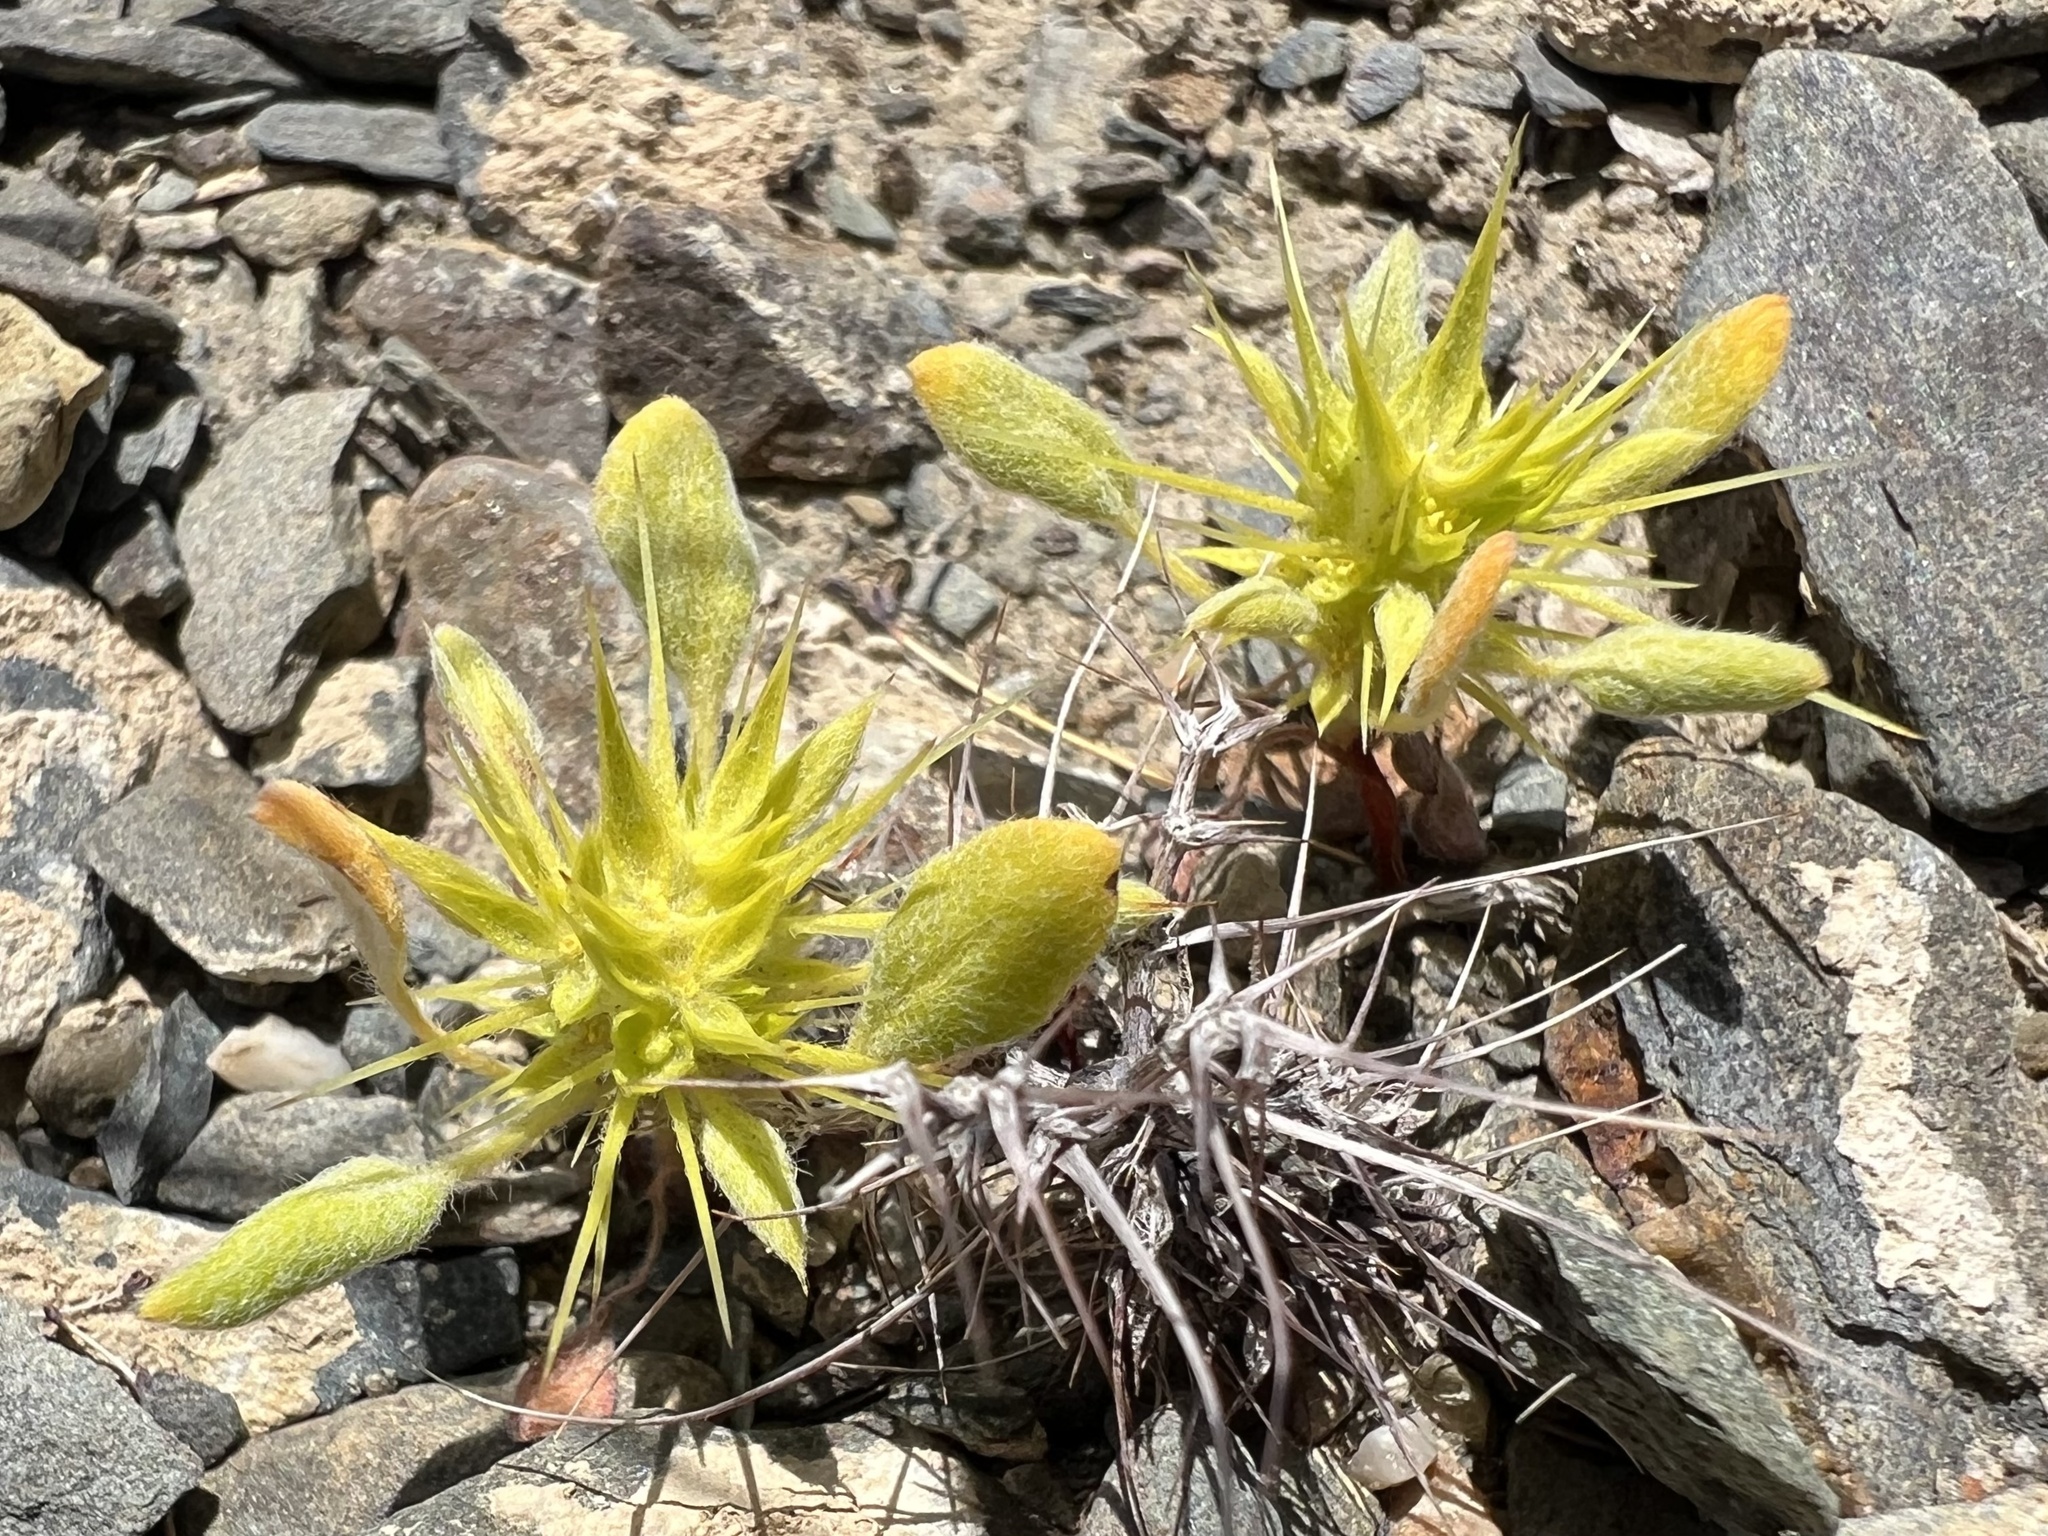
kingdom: Plantae
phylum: Tracheophyta
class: Magnoliopsida
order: Caryophyllales
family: Polygonaceae
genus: Chorizanthe
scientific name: Chorizanthe rigida
